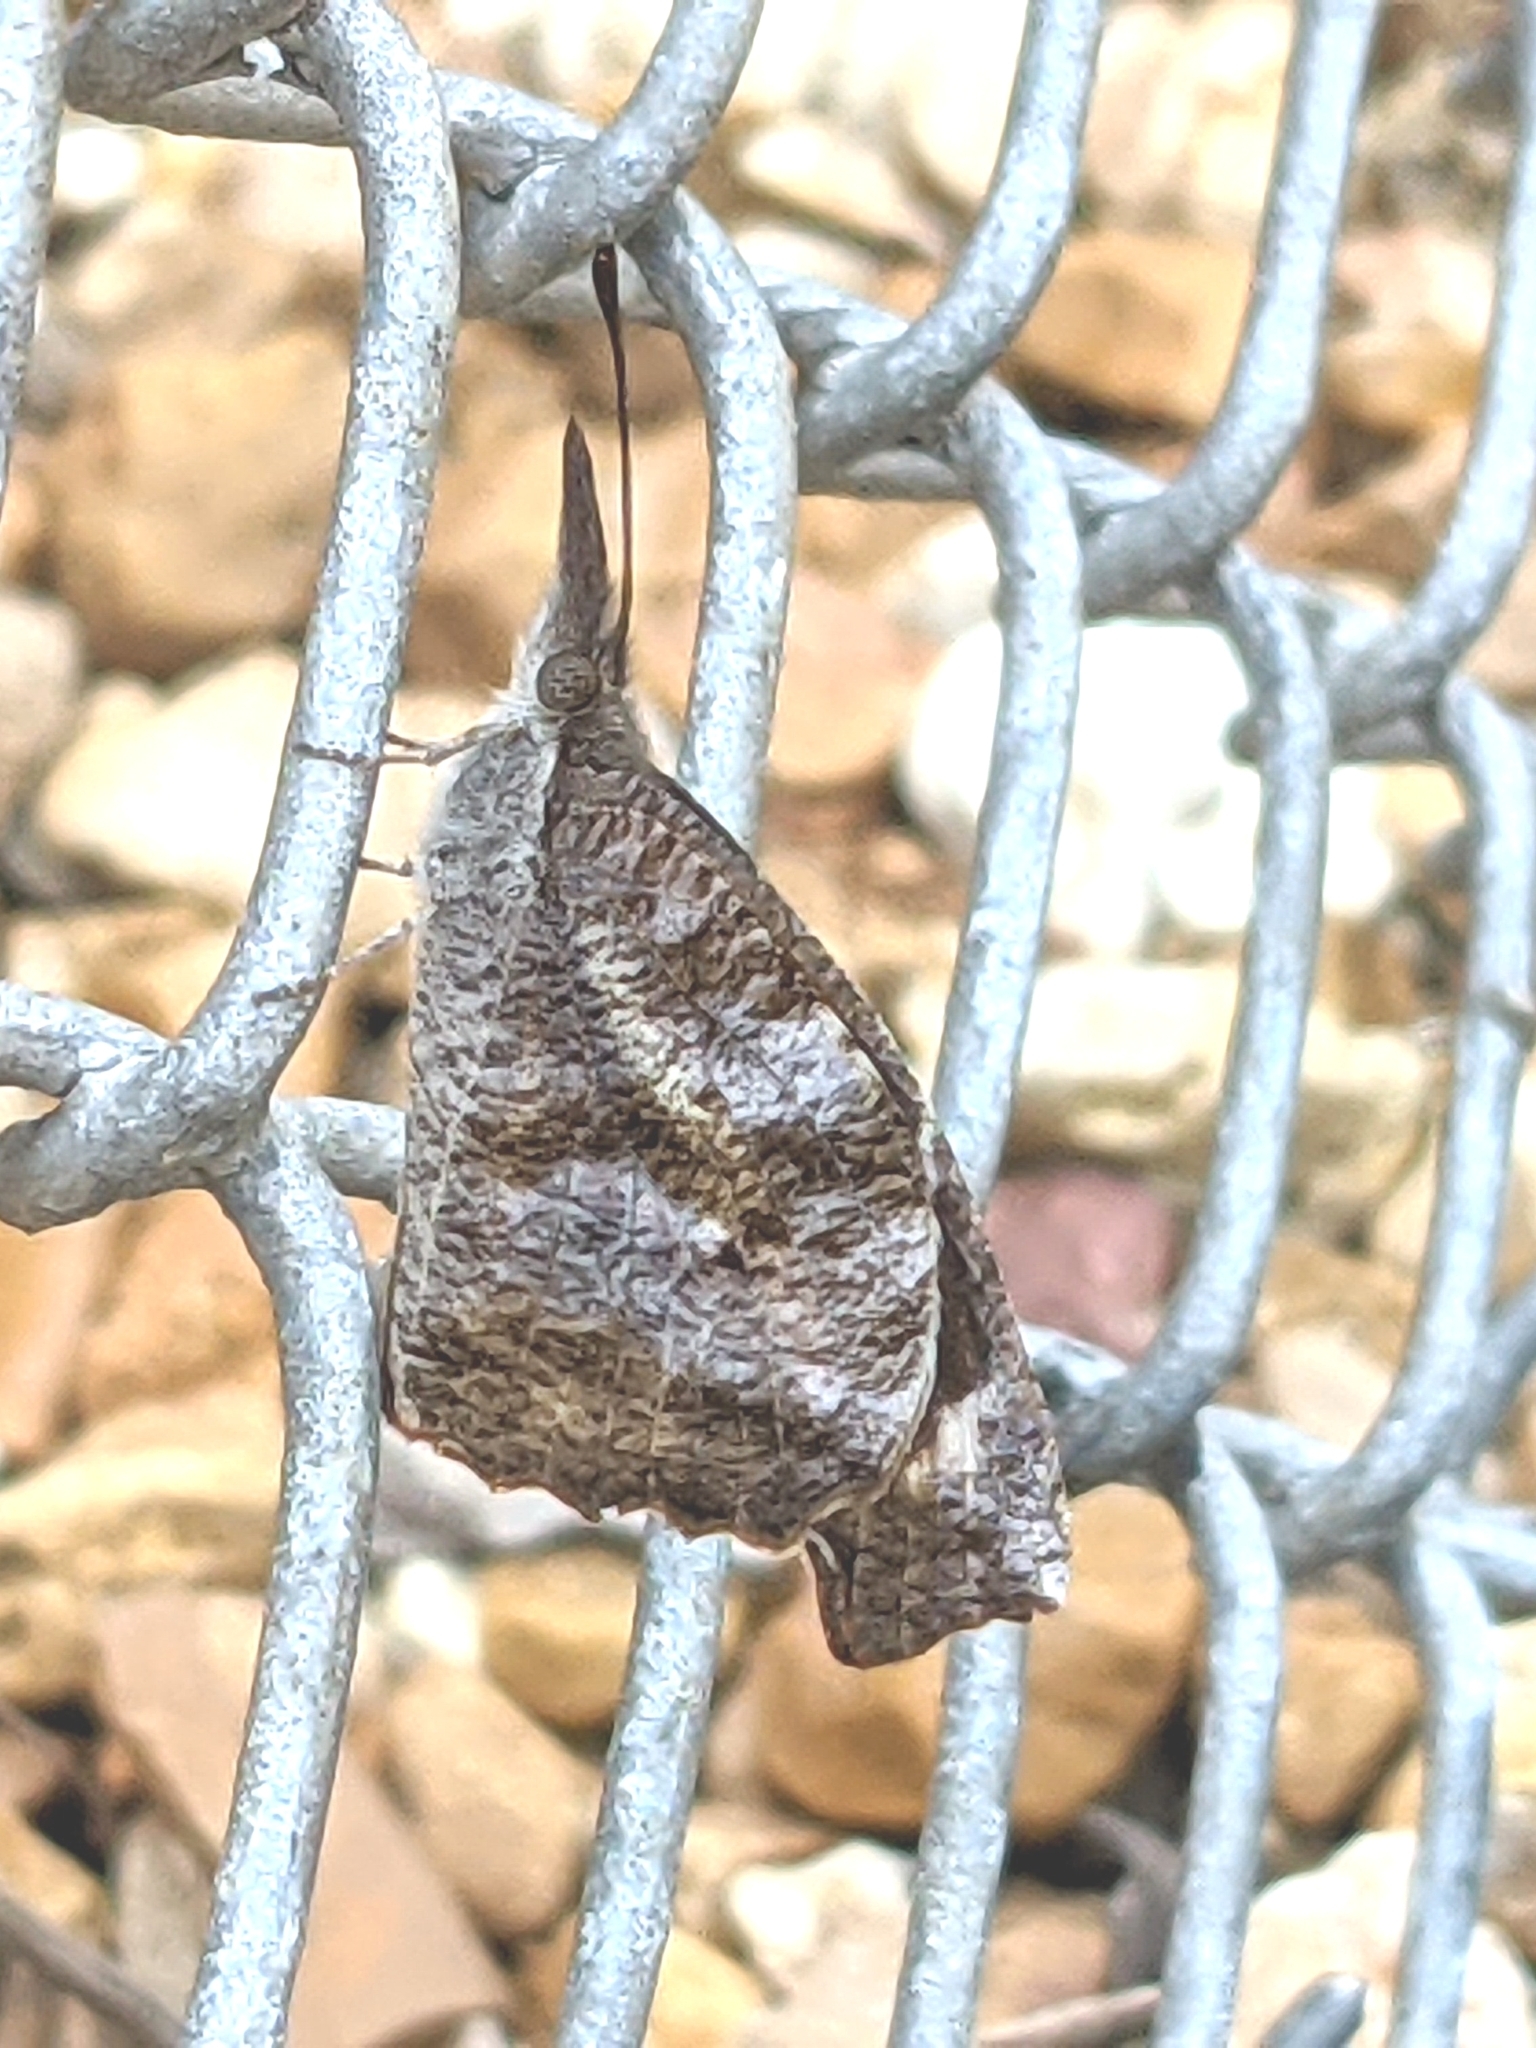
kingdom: Animalia
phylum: Arthropoda
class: Insecta
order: Lepidoptera
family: Nymphalidae
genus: Libytheana
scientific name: Libytheana carinenta
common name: American snout
